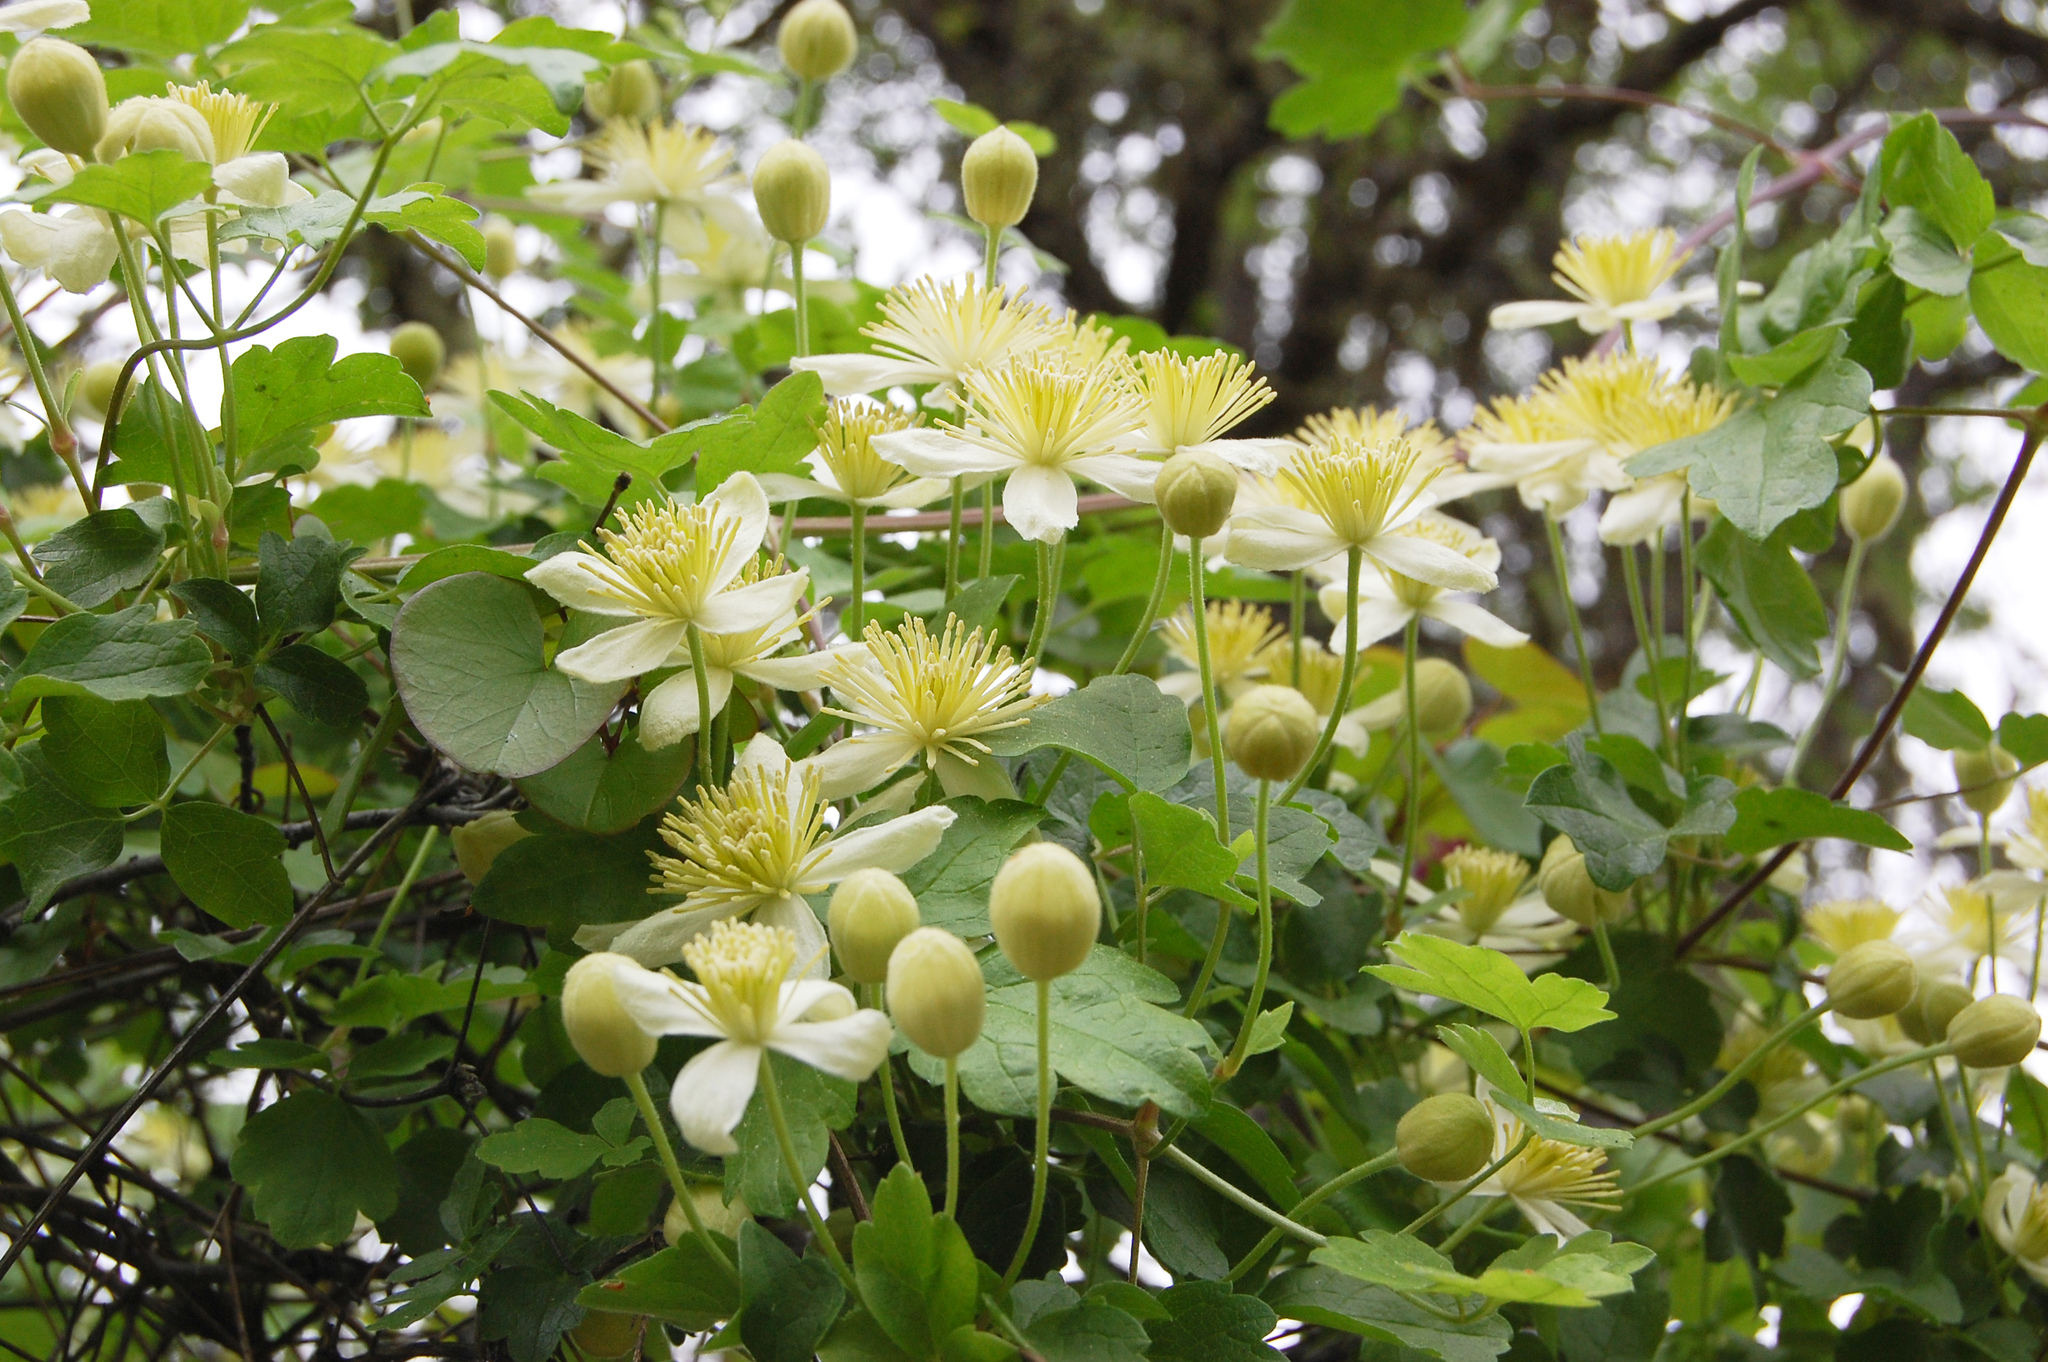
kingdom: Plantae
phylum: Tracheophyta
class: Magnoliopsida
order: Ranunculales
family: Ranunculaceae
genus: Clematis
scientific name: Clematis lasiantha
